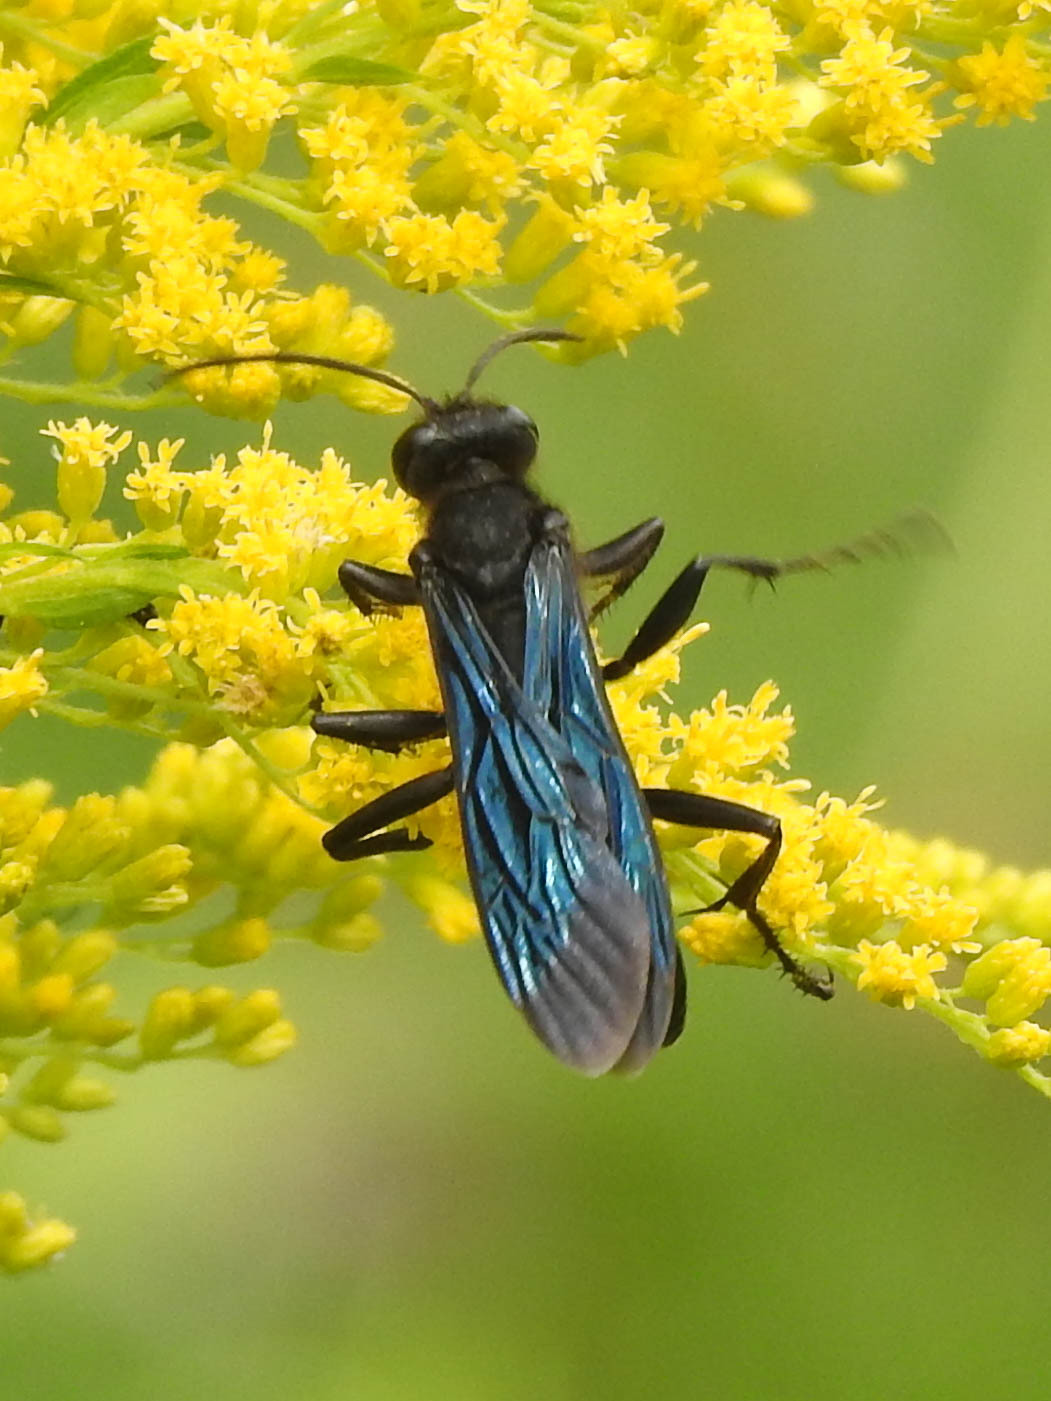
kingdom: Animalia
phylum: Arthropoda
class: Insecta
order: Hymenoptera
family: Sphecidae
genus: Sphex
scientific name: Sphex pensylvanicus
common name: Great black digger wasp
